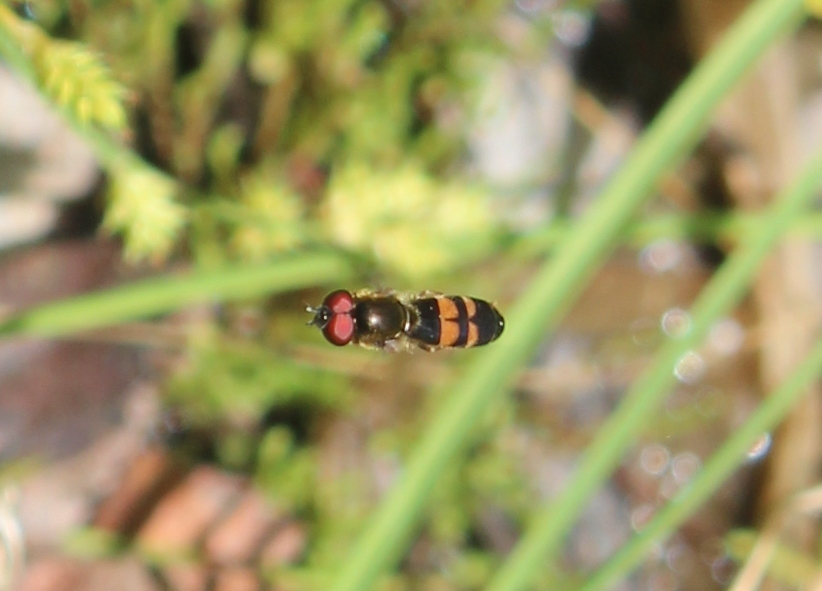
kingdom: Animalia
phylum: Arthropoda
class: Insecta
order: Diptera
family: Syrphidae
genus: Pyrophaena
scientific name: Pyrophaena rosarum
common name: Fourspot sedgesitter
